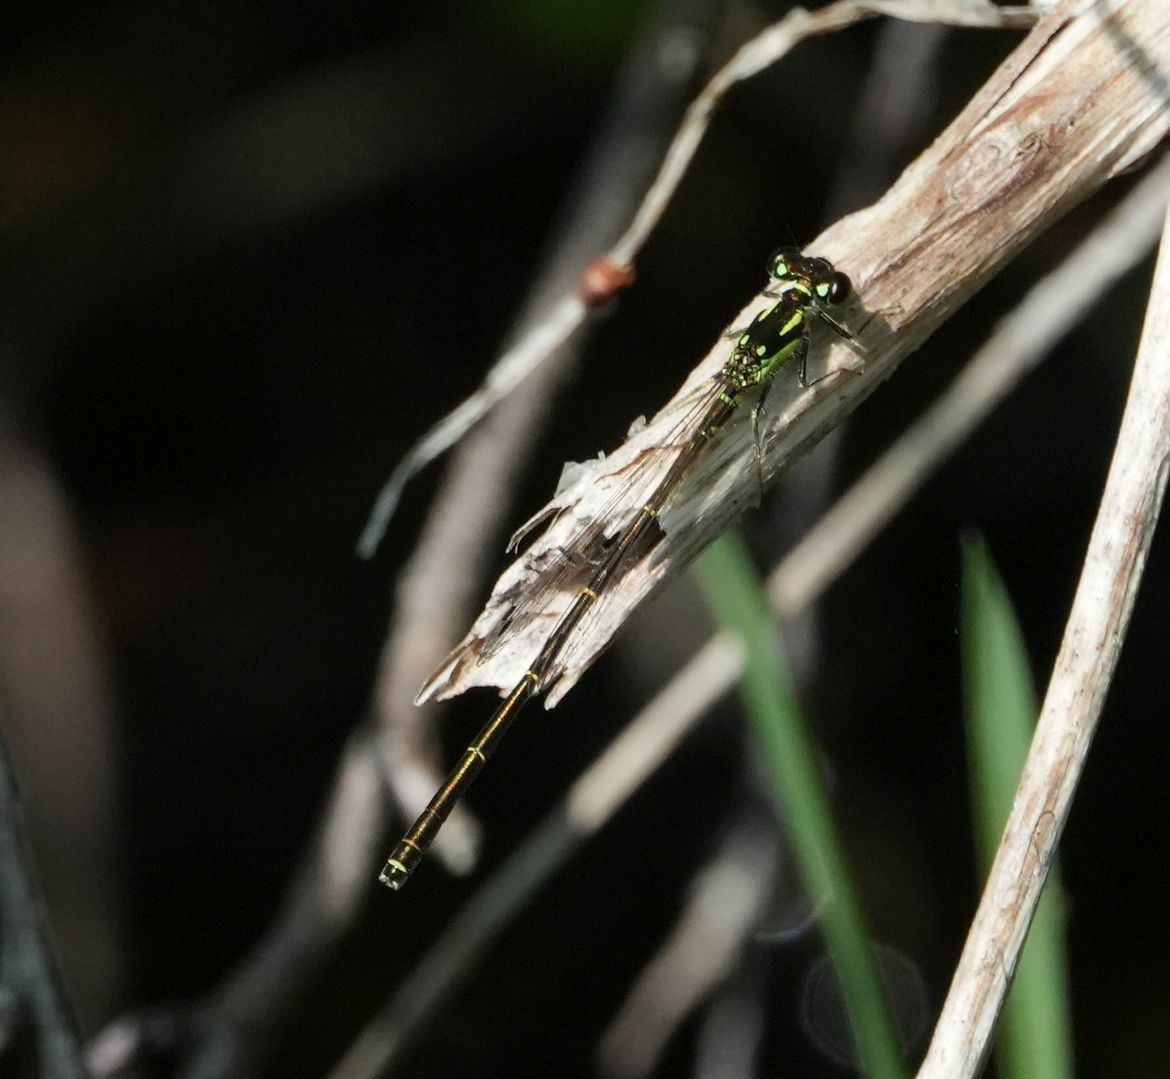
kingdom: Animalia
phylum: Arthropoda
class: Insecta
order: Odonata
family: Coenagrionidae
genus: Ischnura
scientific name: Ischnura posita
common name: Fragile forktail
